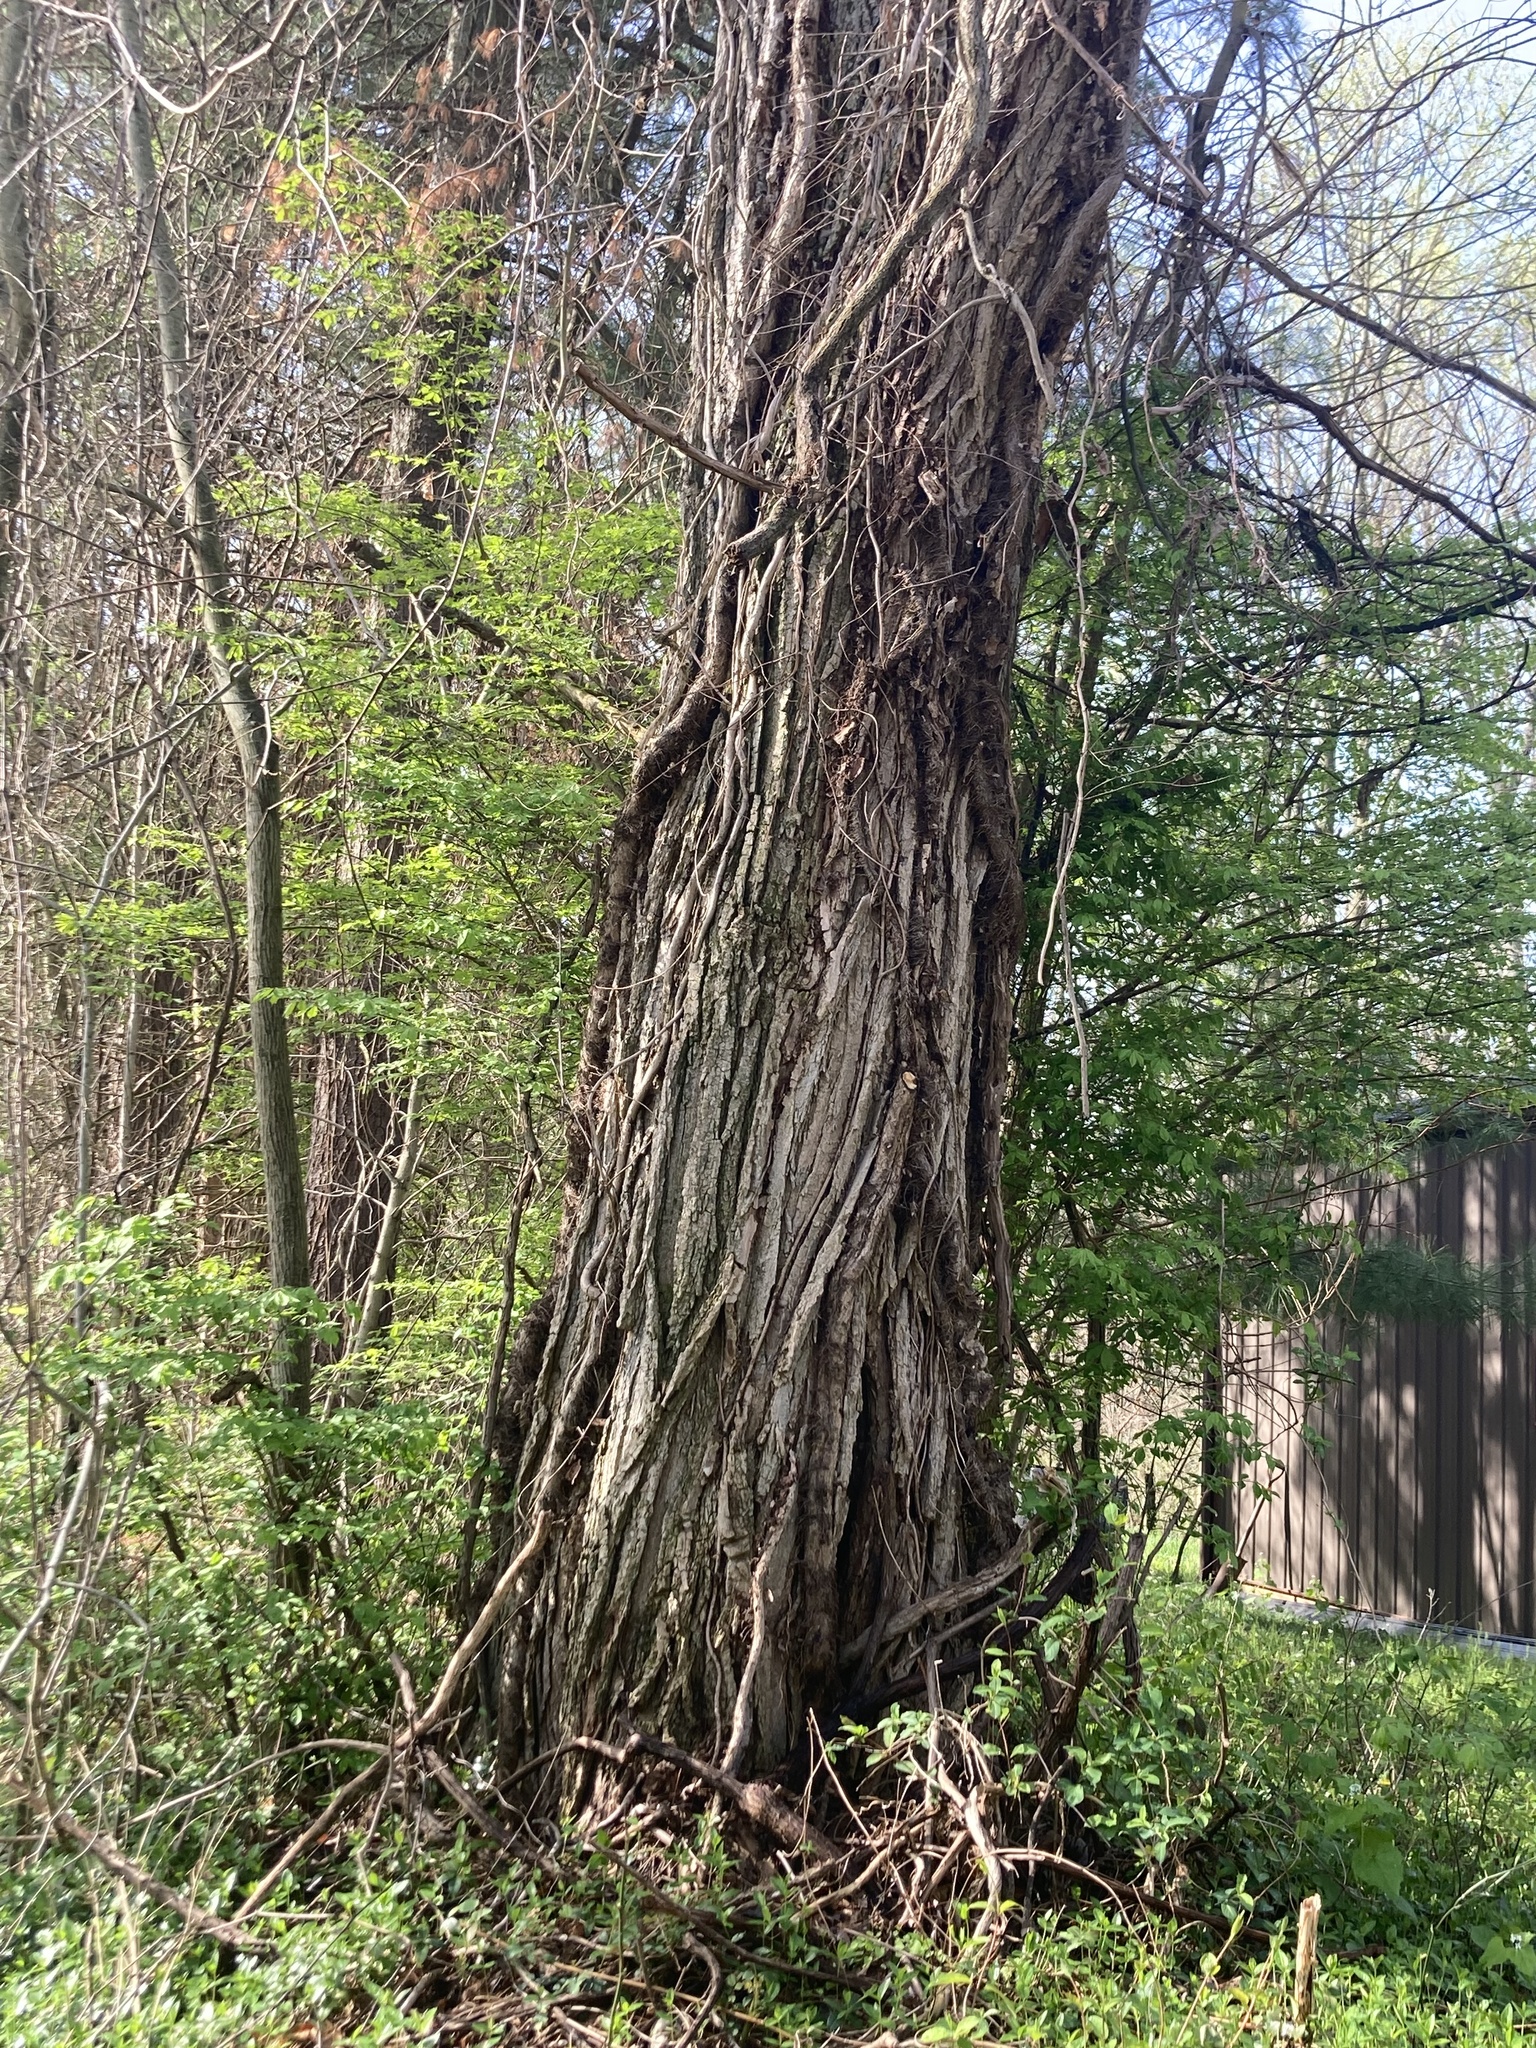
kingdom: Plantae
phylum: Tracheophyta
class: Magnoliopsida
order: Fabales
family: Fabaceae
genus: Robinia
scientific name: Robinia pseudoacacia
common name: Black locust
